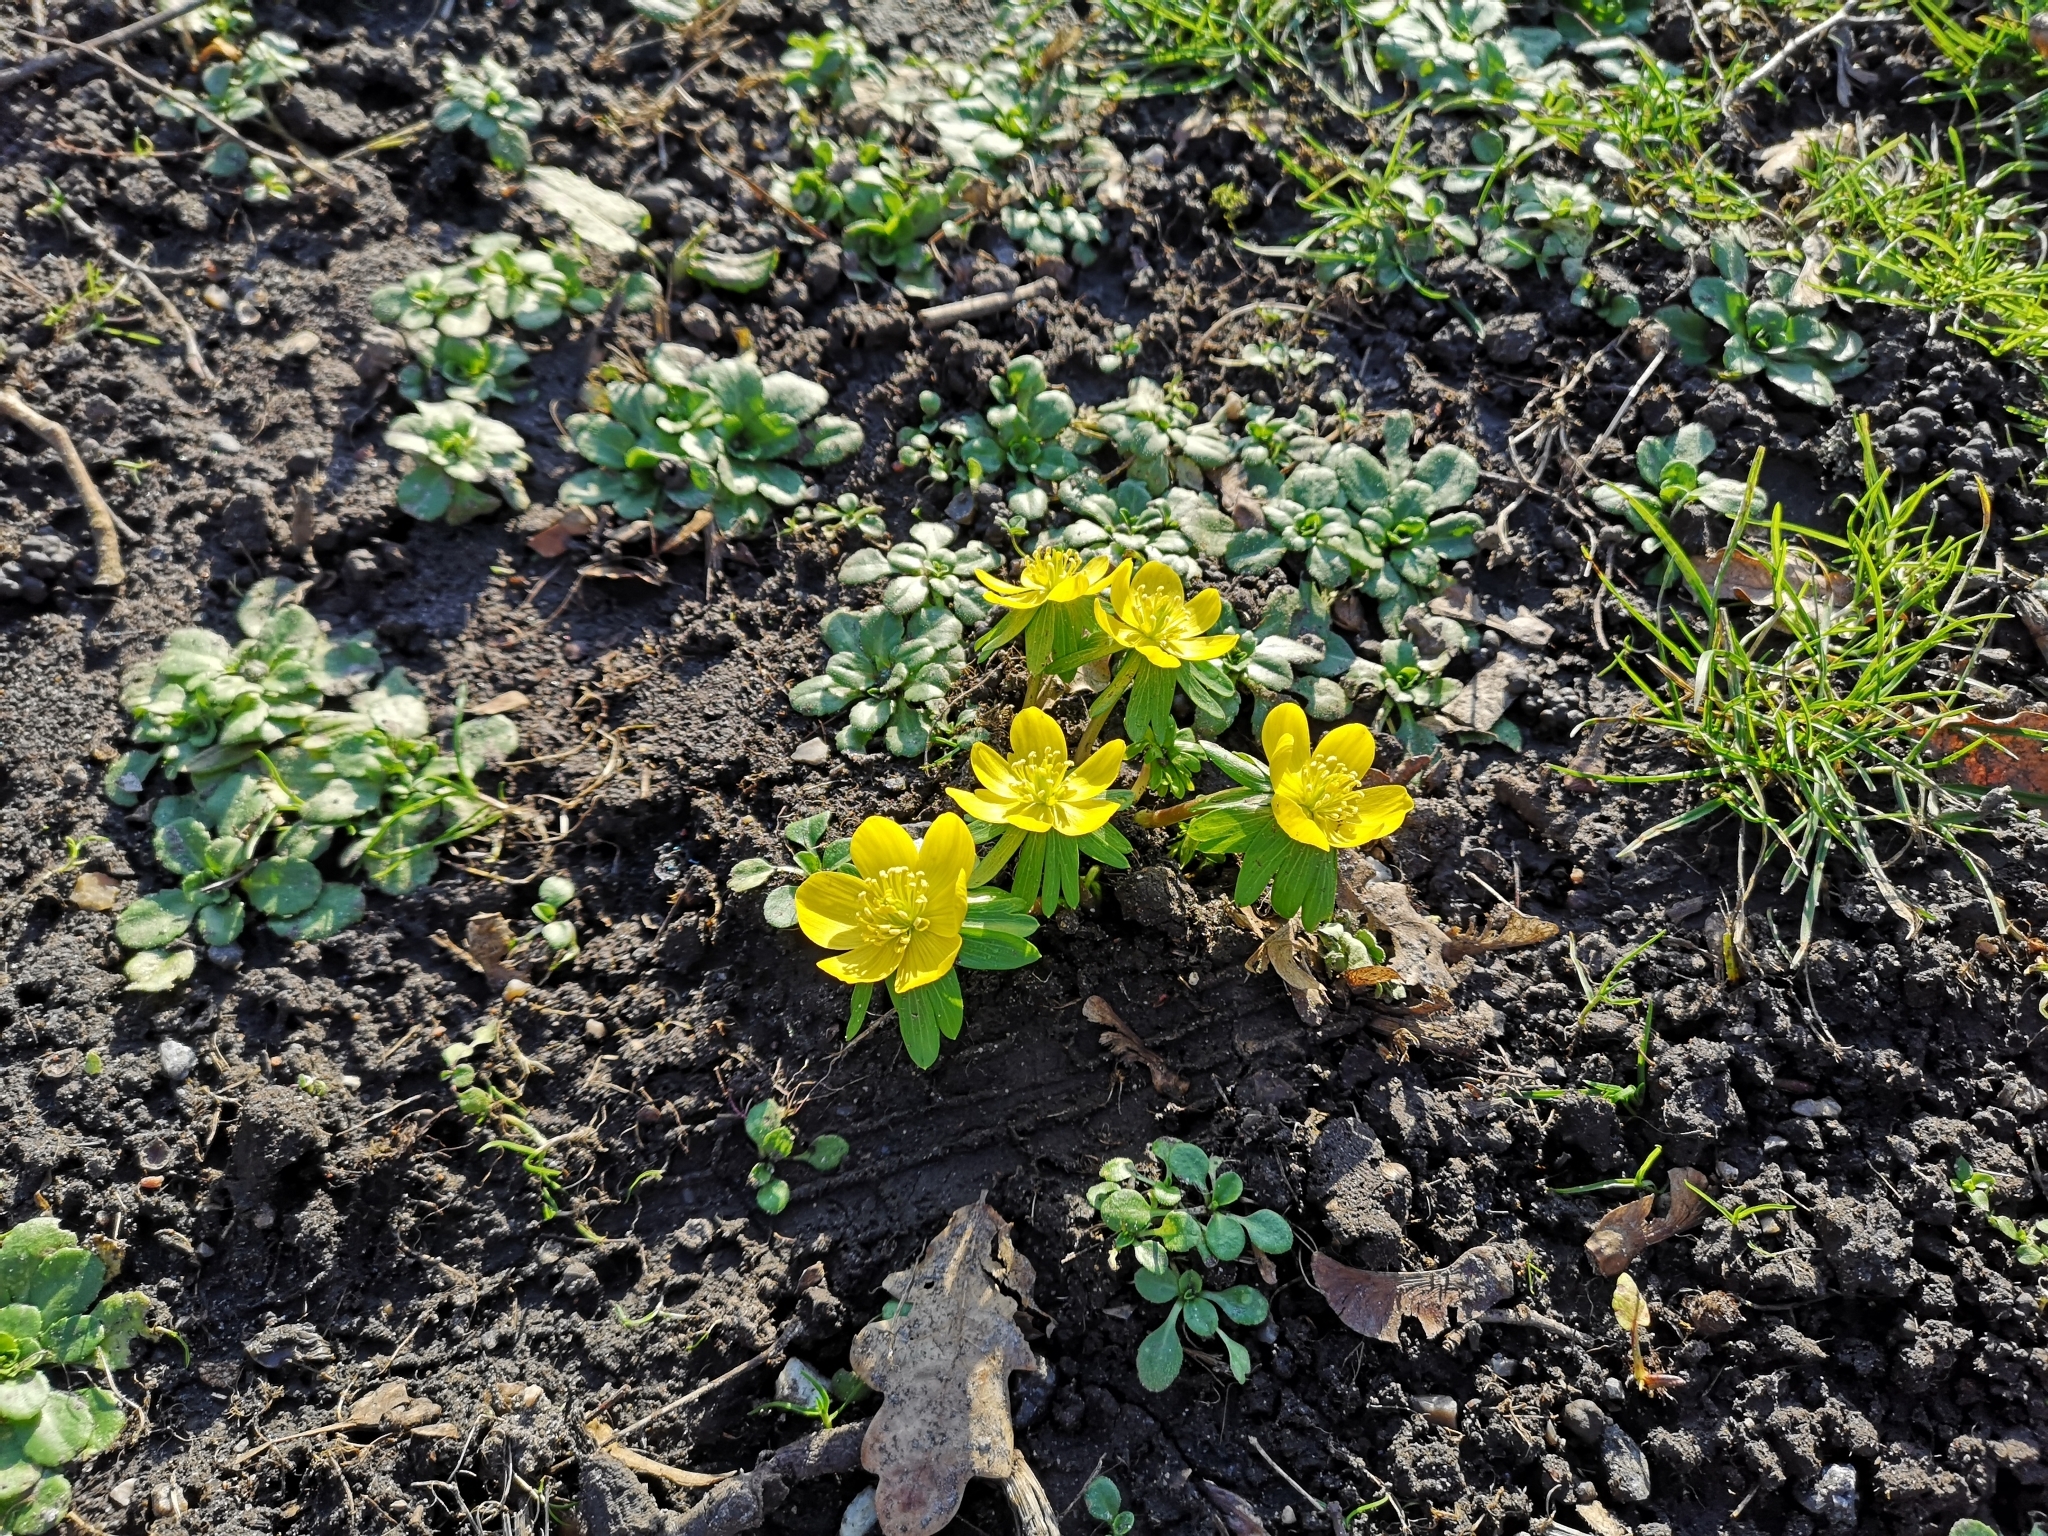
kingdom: Plantae
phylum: Tracheophyta
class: Magnoliopsida
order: Ranunculales
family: Ranunculaceae
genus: Eranthis
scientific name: Eranthis hyemalis
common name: Winter aconite
